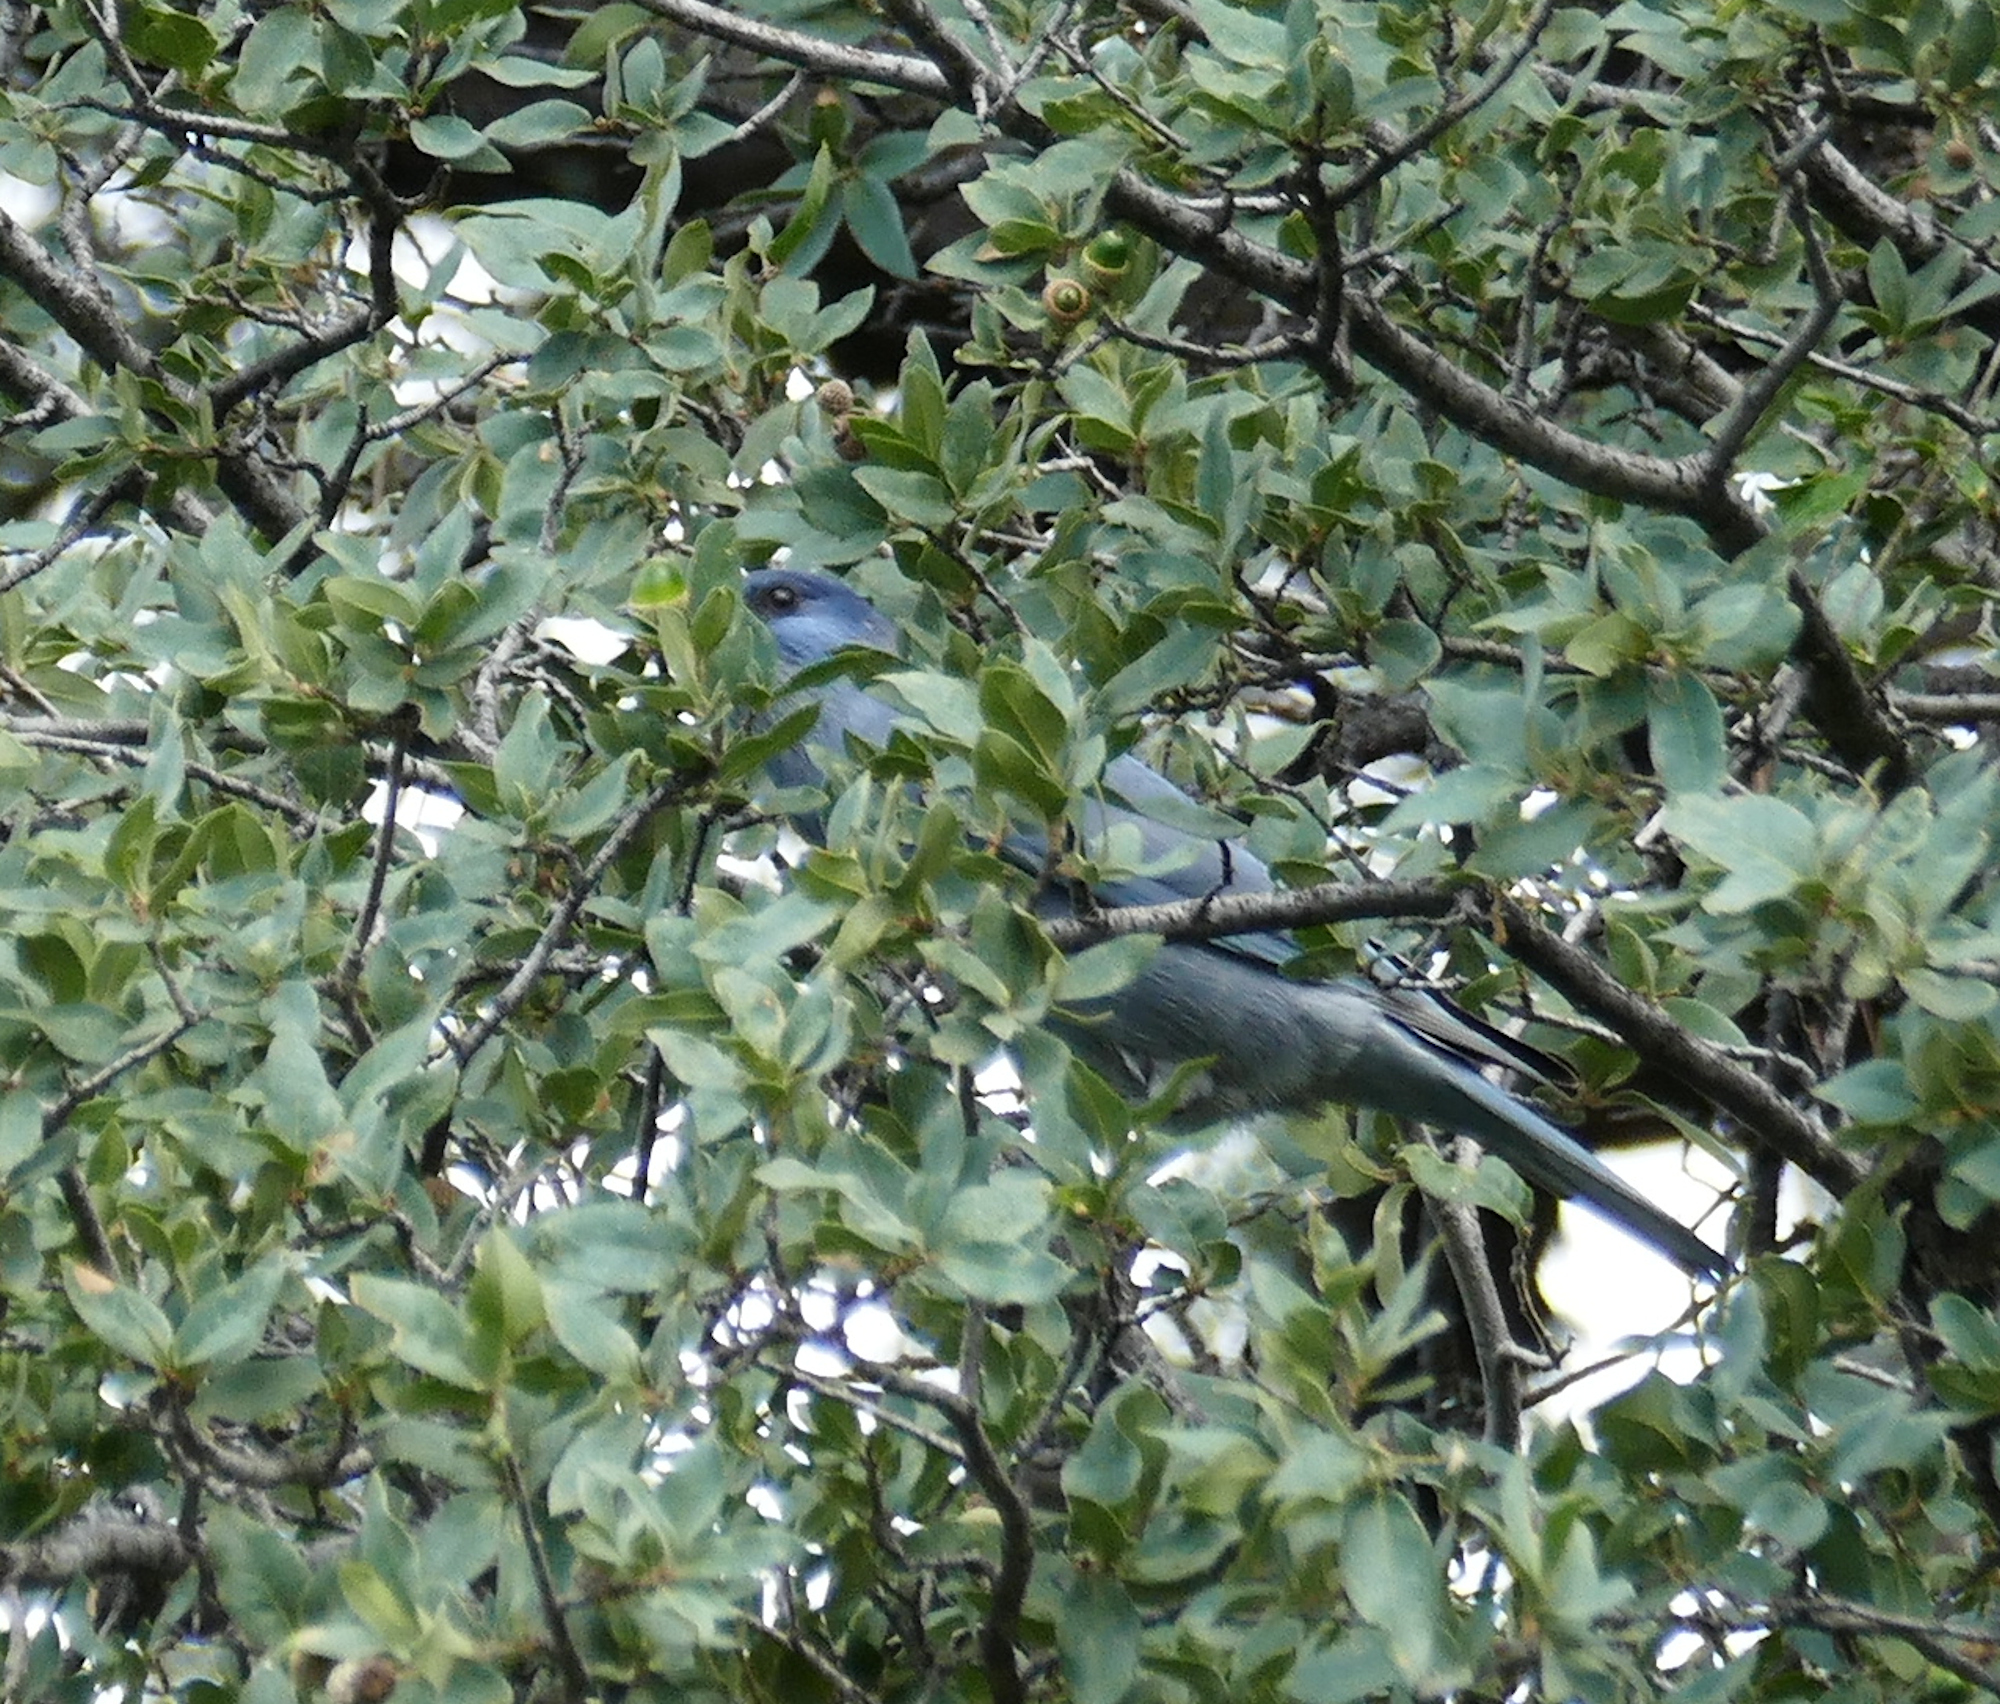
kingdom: Animalia
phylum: Chordata
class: Aves
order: Passeriformes
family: Corvidae
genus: Gymnorhinus
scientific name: Gymnorhinus cyanocephalus
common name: Pinyon jay
